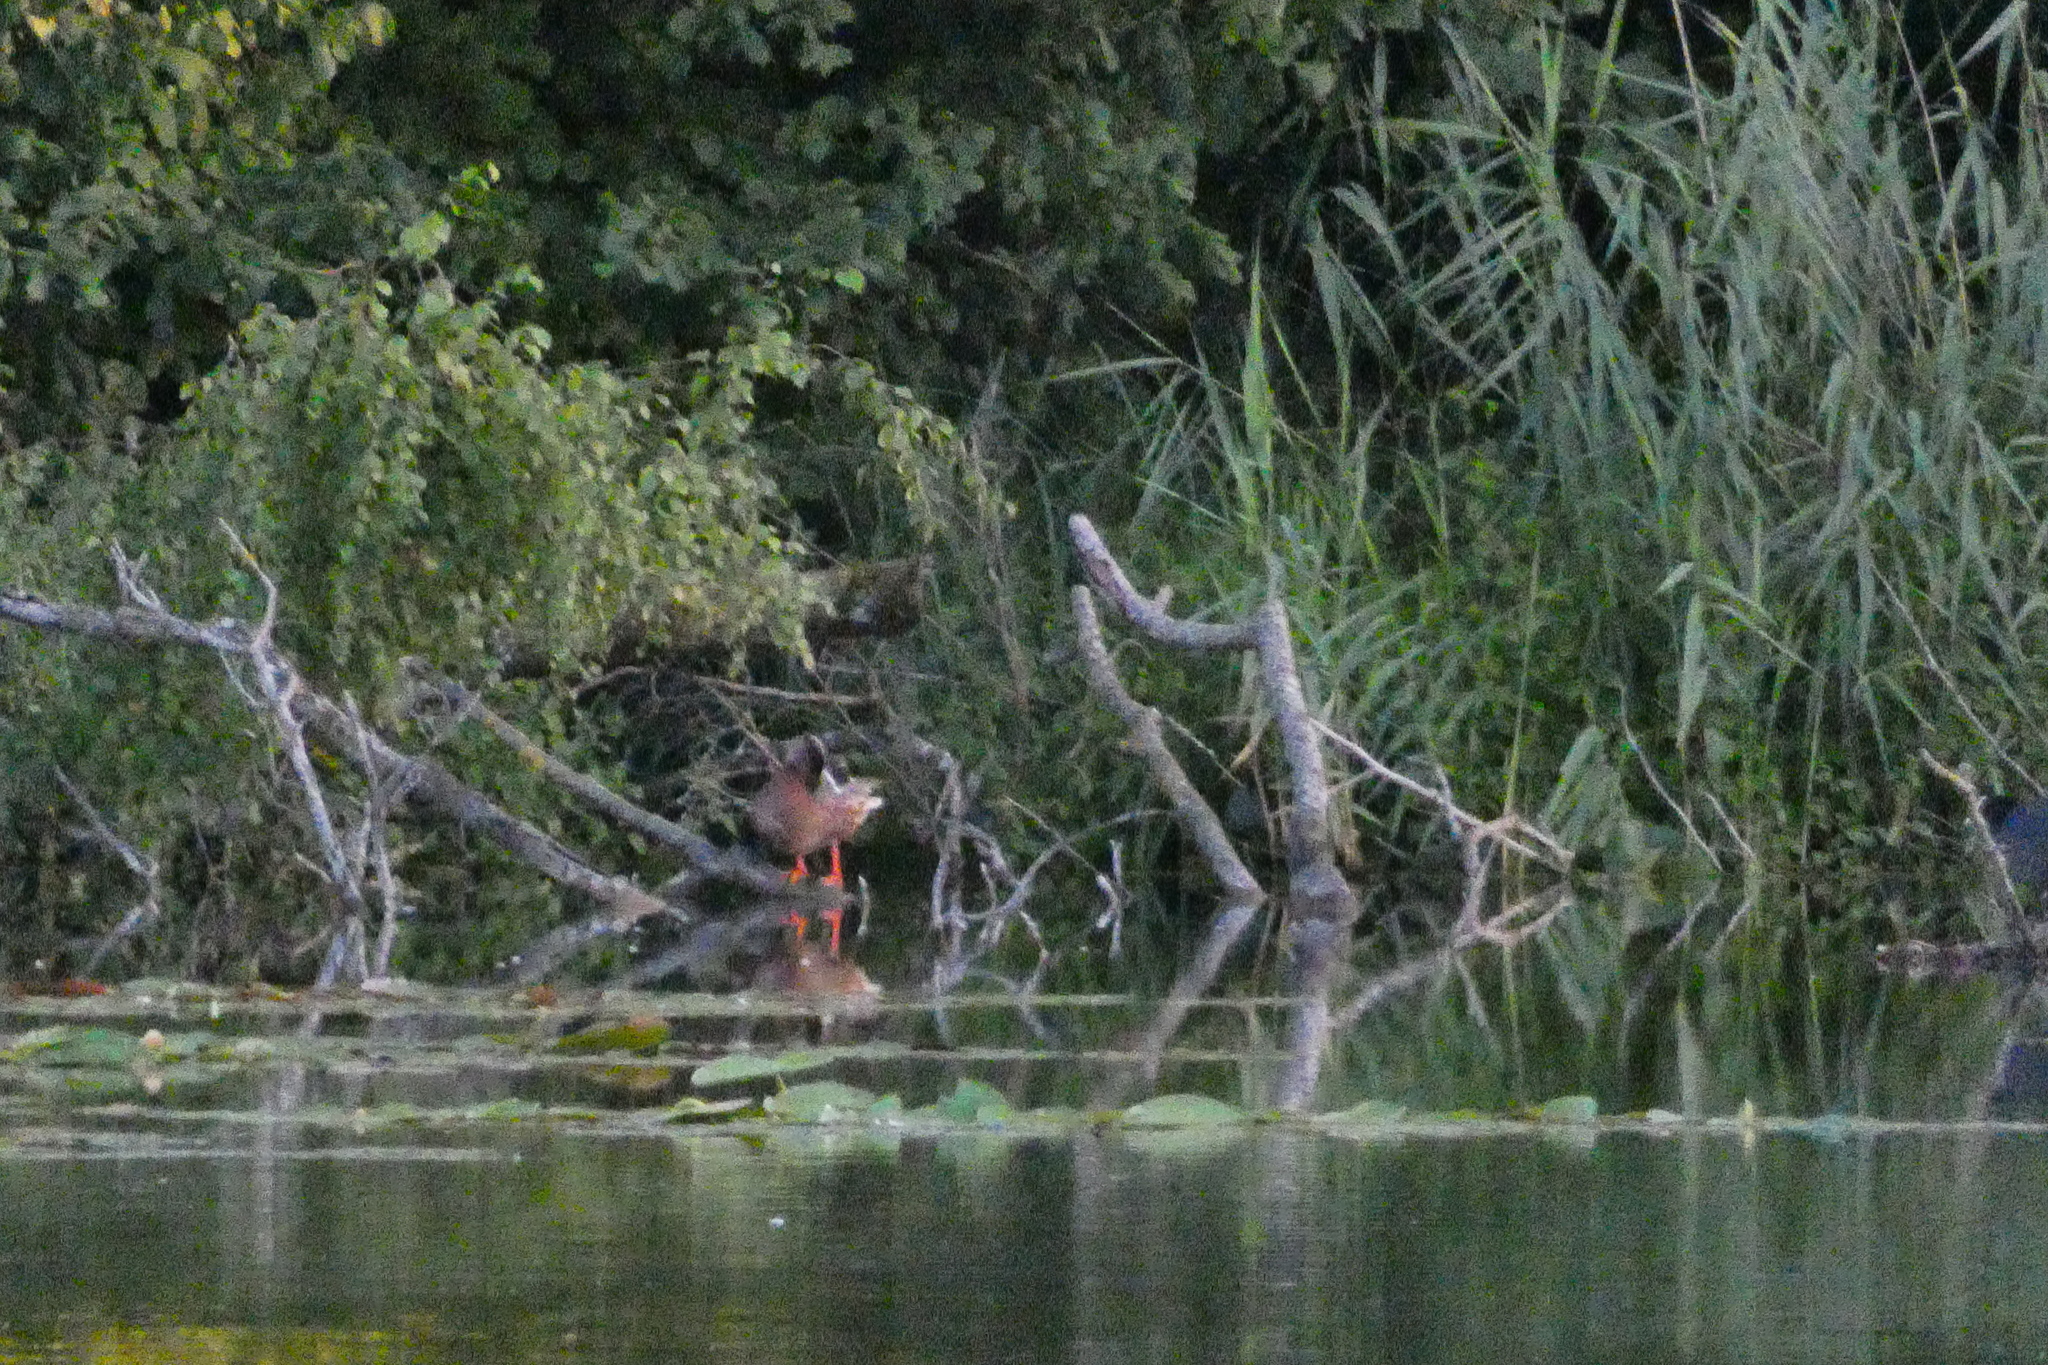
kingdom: Animalia
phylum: Chordata
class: Aves
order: Anseriformes
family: Anatidae
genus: Anas
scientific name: Anas platyrhynchos
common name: Mallard
